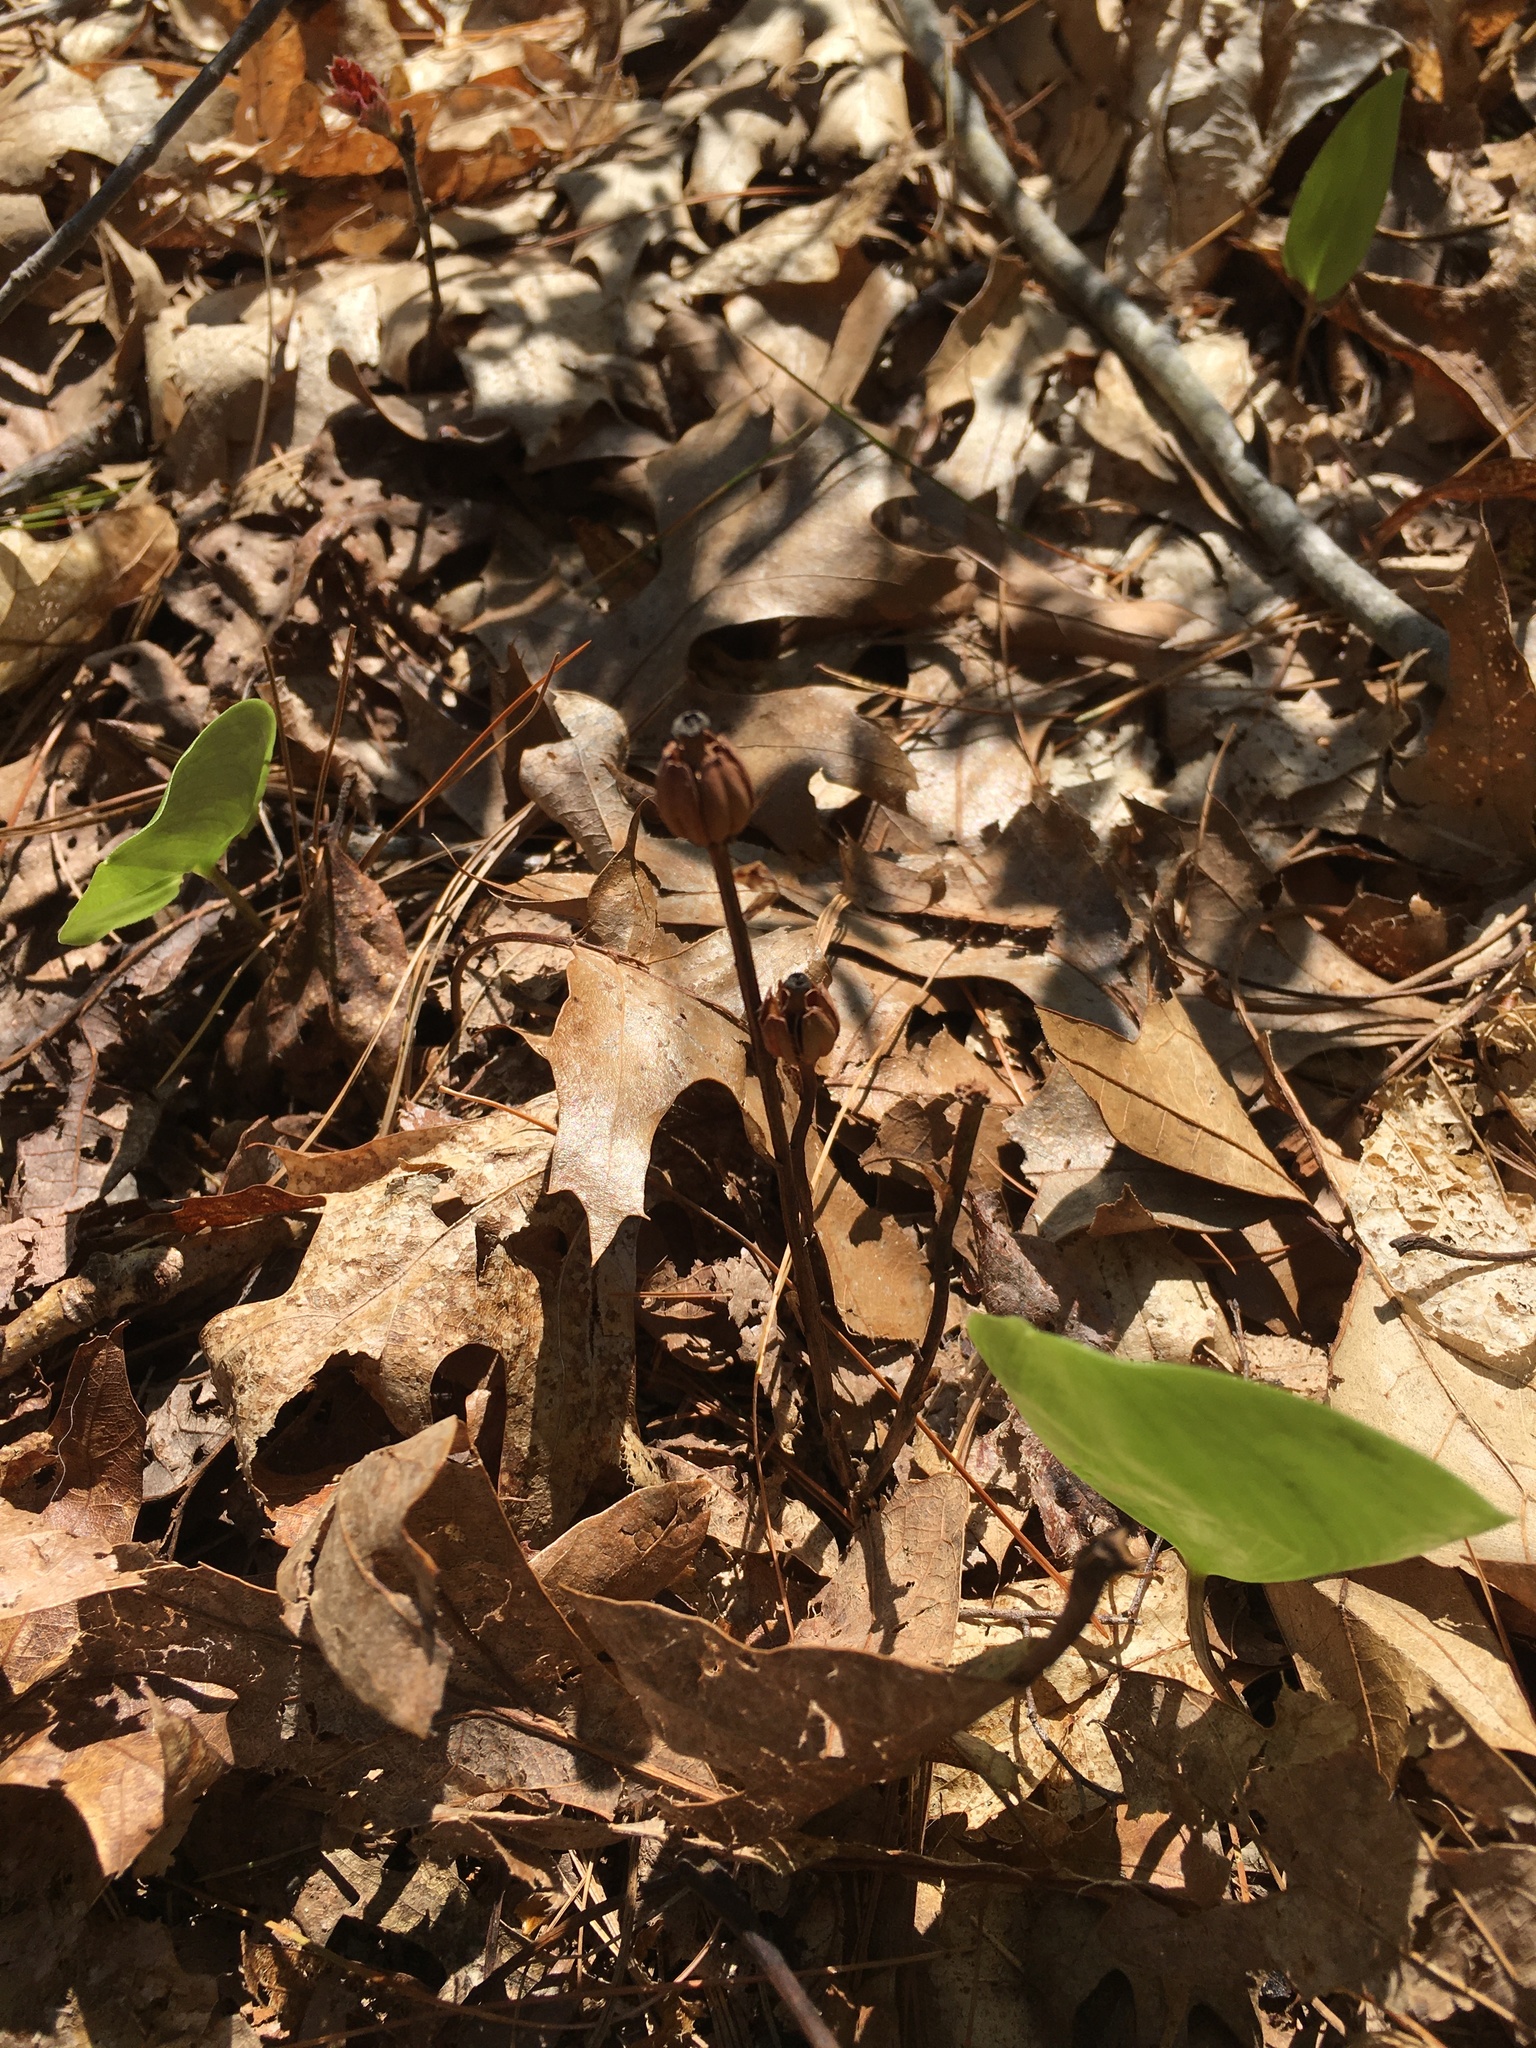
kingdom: Plantae
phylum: Tracheophyta
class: Magnoliopsida
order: Ericales
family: Ericaceae
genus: Monotropa
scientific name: Monotropa uniflora
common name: Convulsion root
